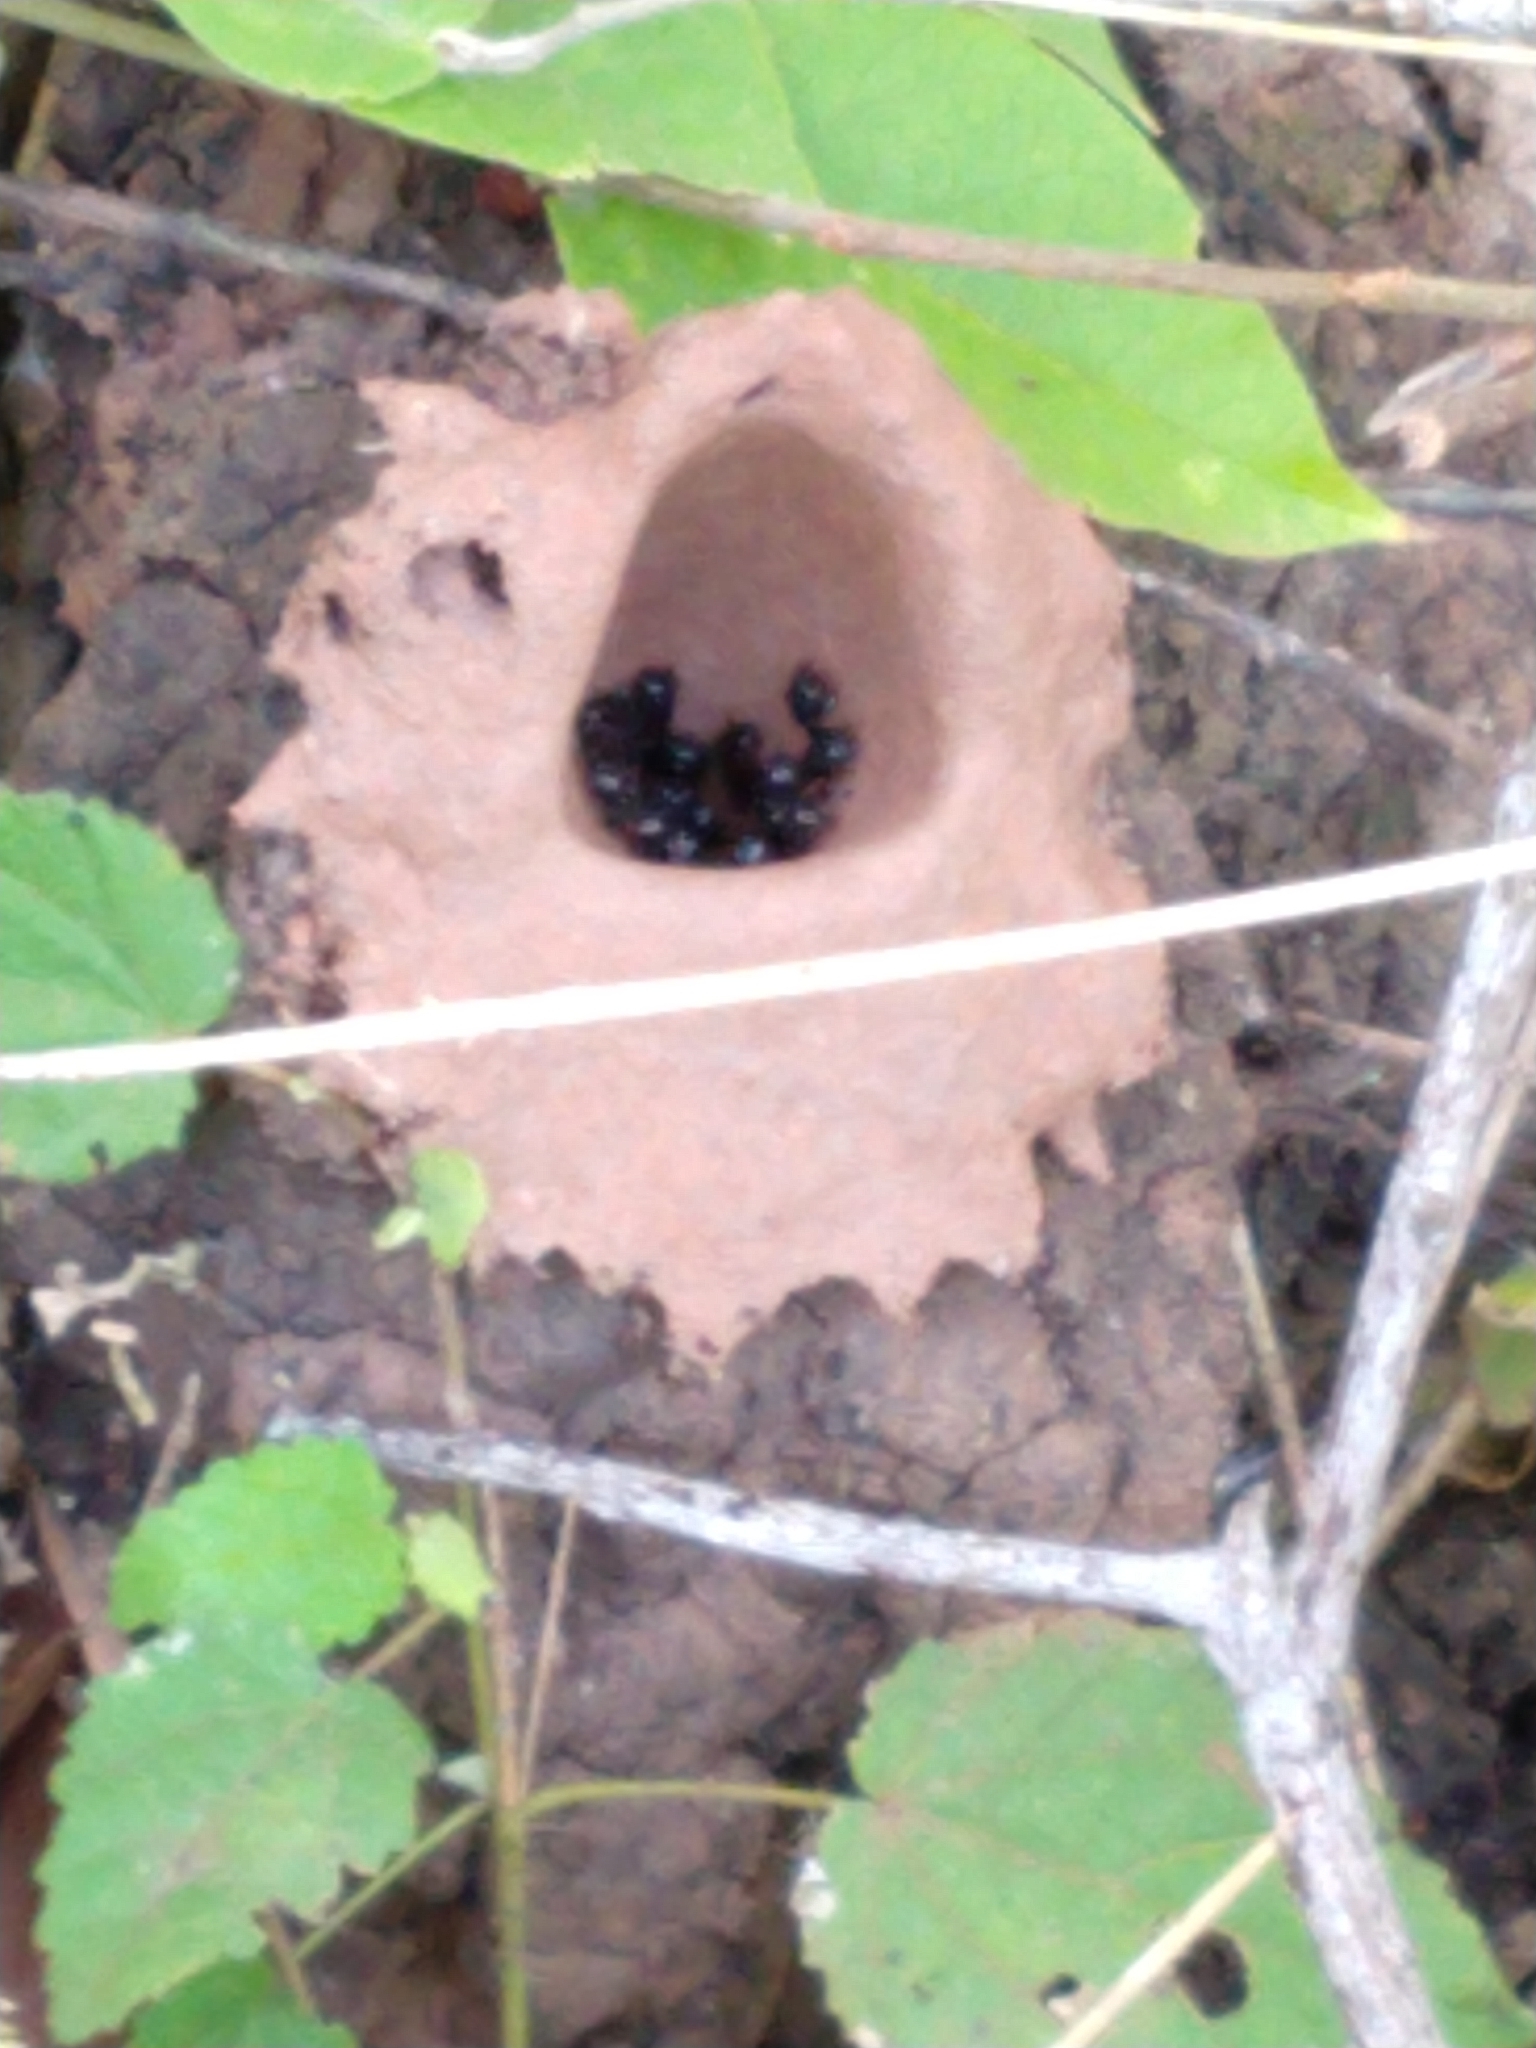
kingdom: Animalia
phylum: Arthropoda
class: Insecta
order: Hymenoptera
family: Apidae
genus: Partamona
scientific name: Partamona helleri
